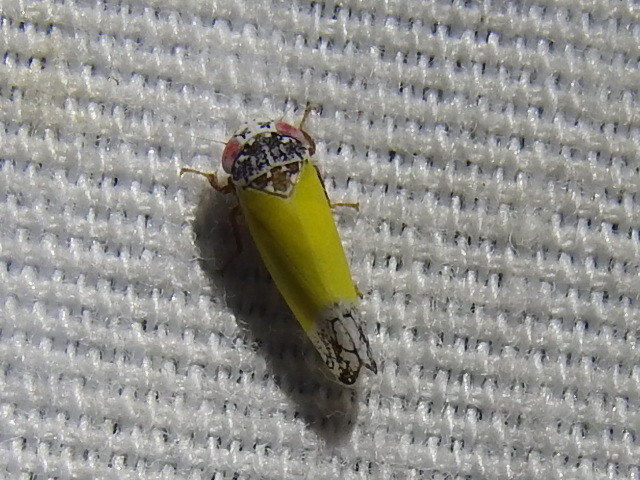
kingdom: Animalia
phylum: Arthropoda
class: Insecta
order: Hemiptera
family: Cicadellidae
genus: Norvellina
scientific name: Norvellina bicolorata
